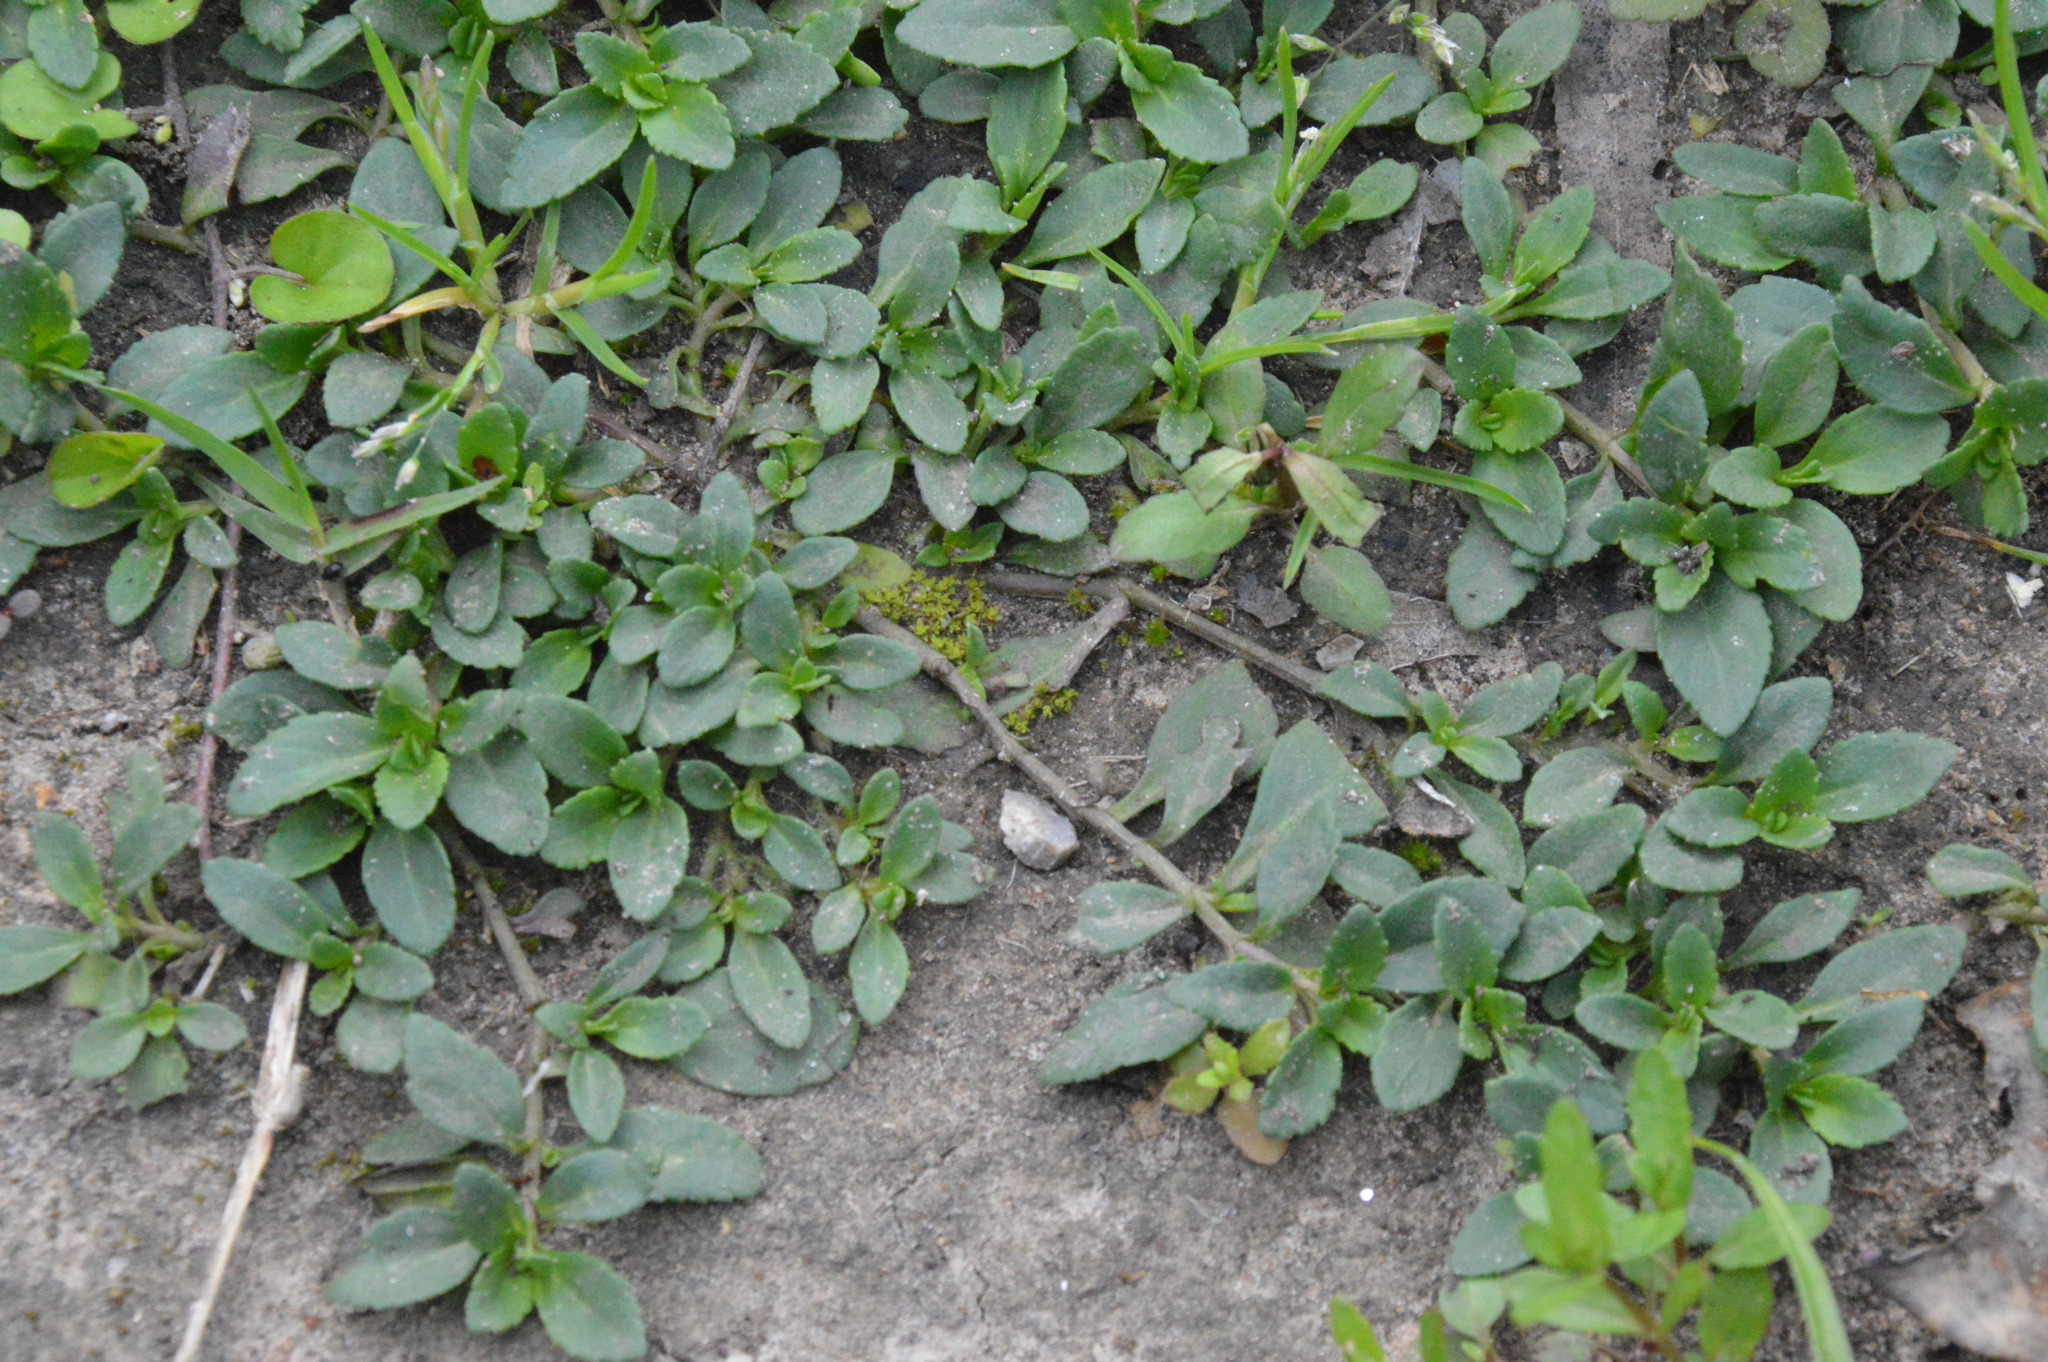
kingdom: Plantae
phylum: Tracheophyta
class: Magnoliopsida
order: Lamiales
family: Plantaginaceae
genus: Mecardonia
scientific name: Mecardonia procumbens
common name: Baby jump-up
